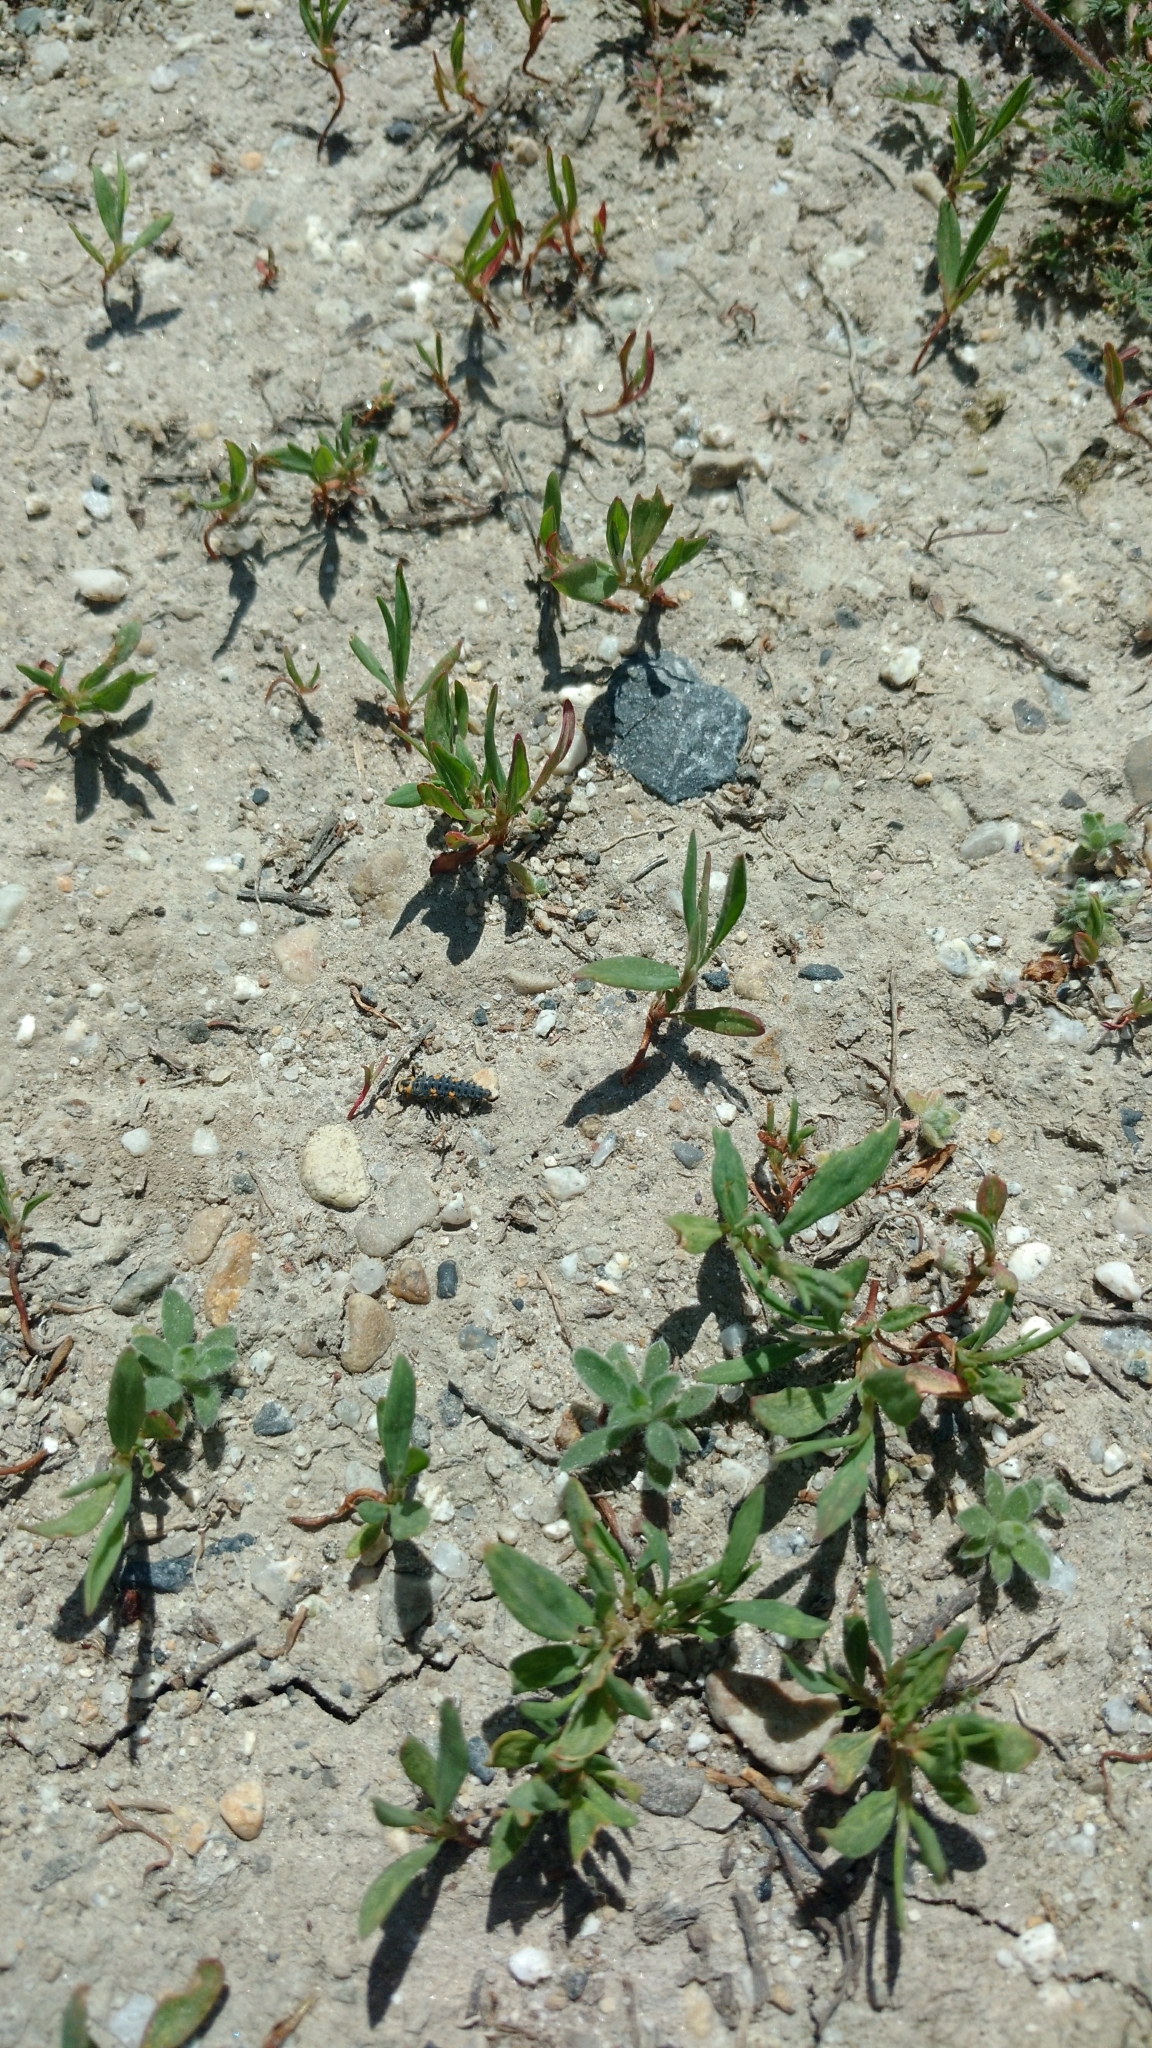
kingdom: Animalia
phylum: Arthropoda
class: Insecta
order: Coleoptera
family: Coccinellidae
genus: Coccinella
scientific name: Coccinella septempunctata
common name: Sevenspotted lady beetle
